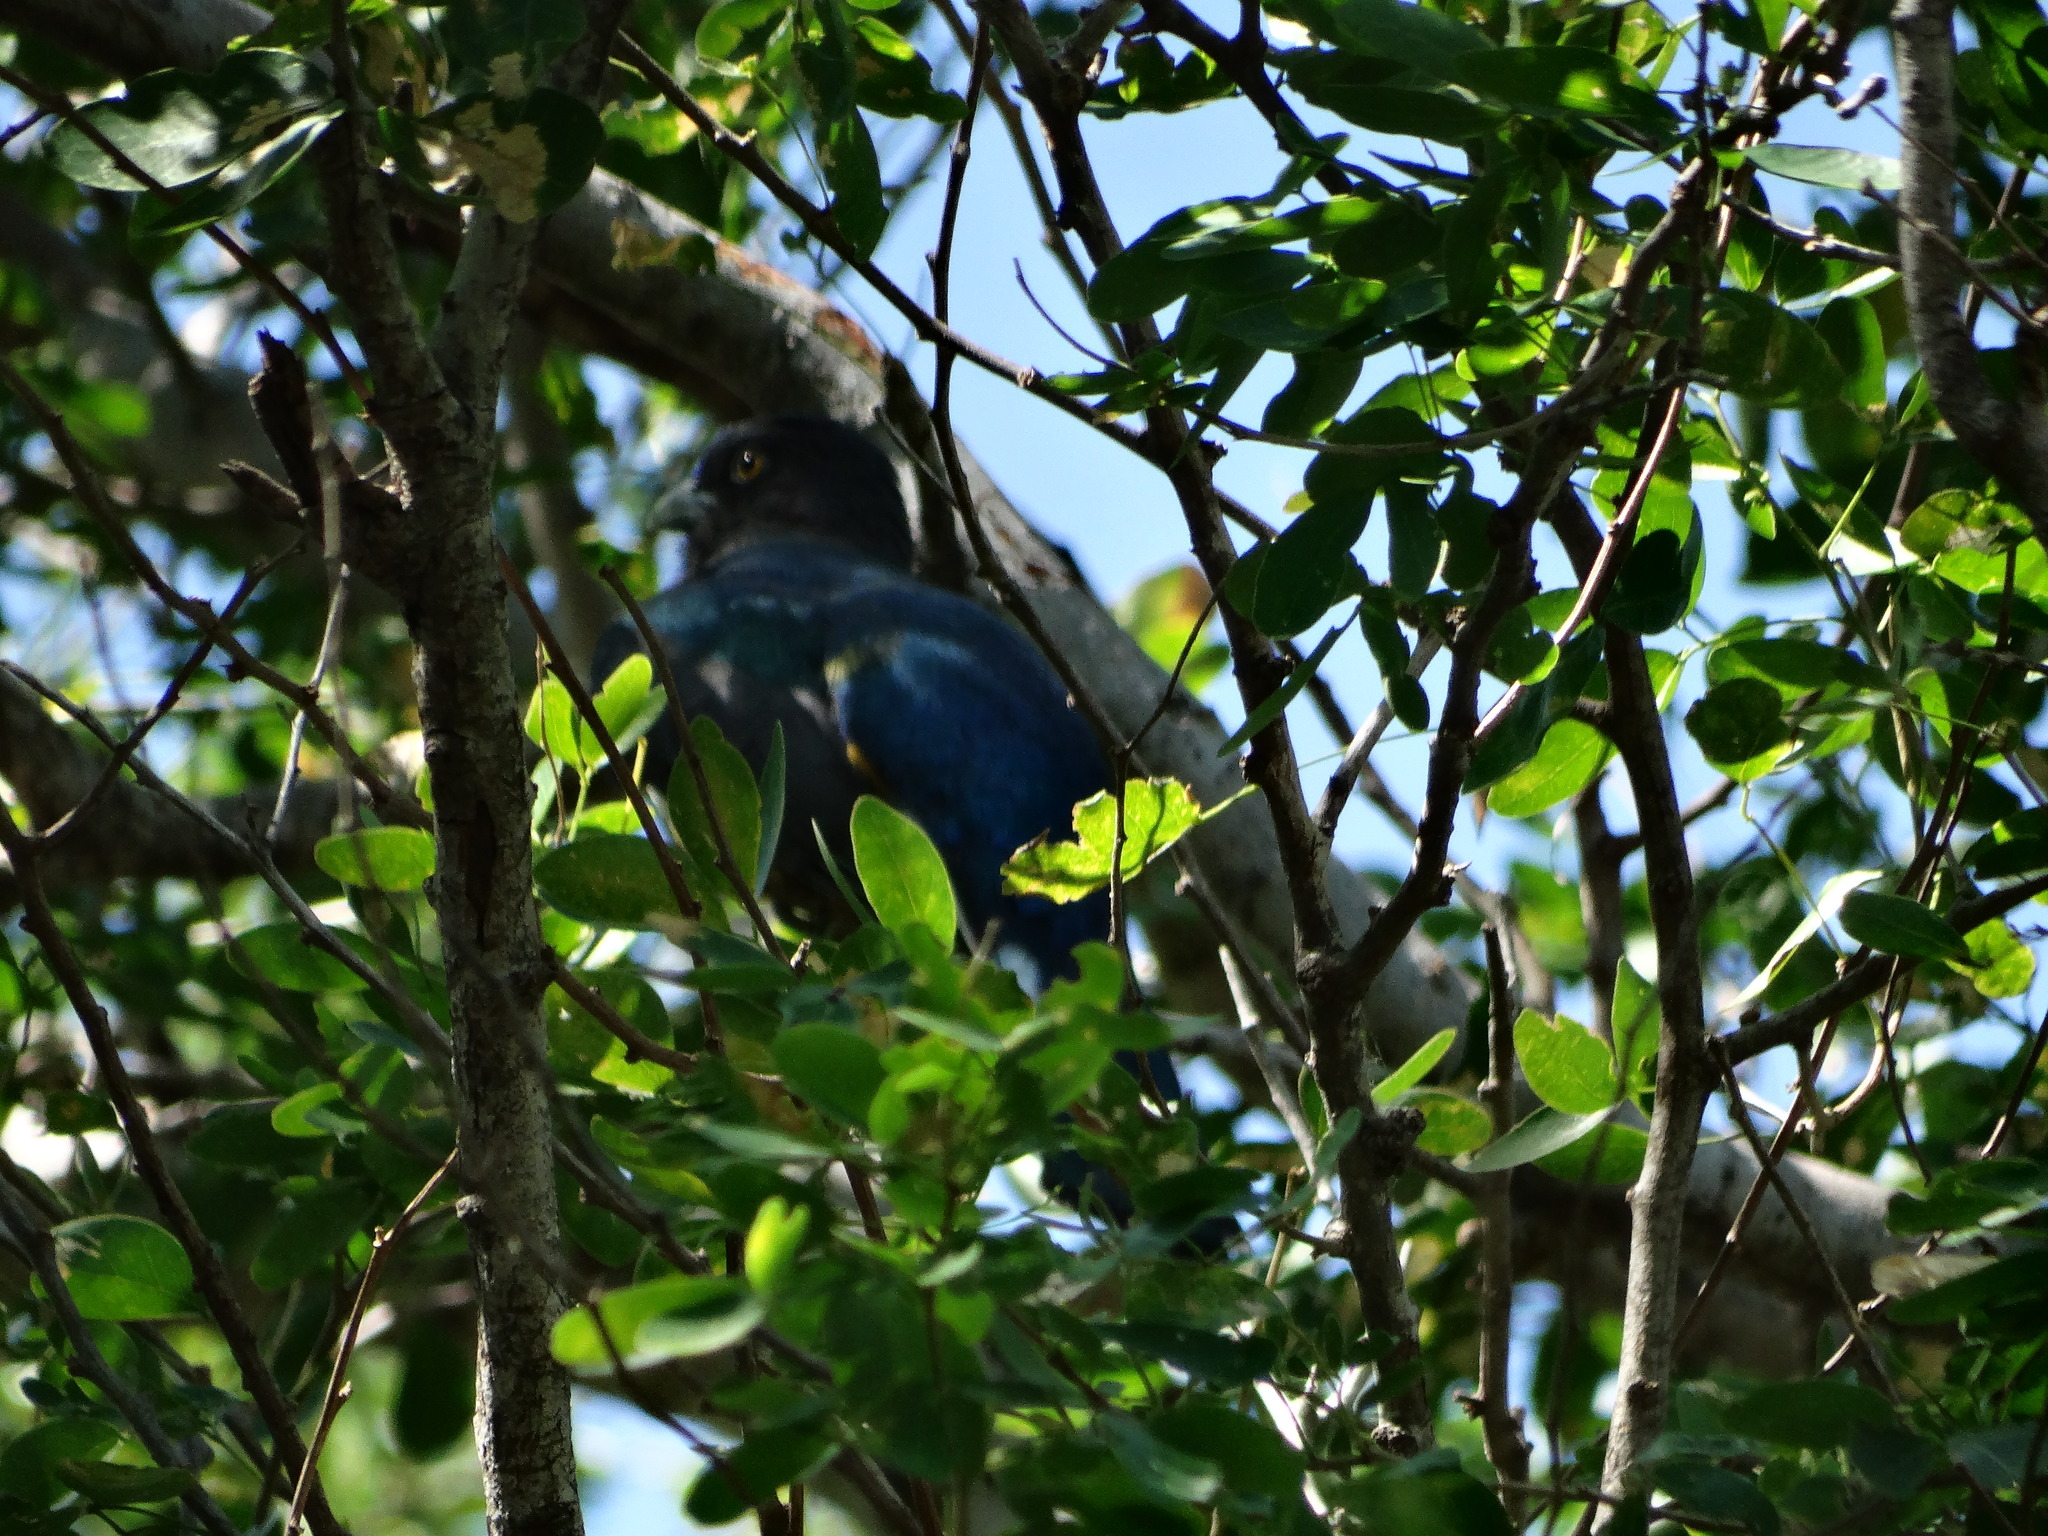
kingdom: Animalia
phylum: Chordata
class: Aves
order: Trogoniformes
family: Trogonidae
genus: Trogon
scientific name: Trogon citreolus
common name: Citreoline trogon
